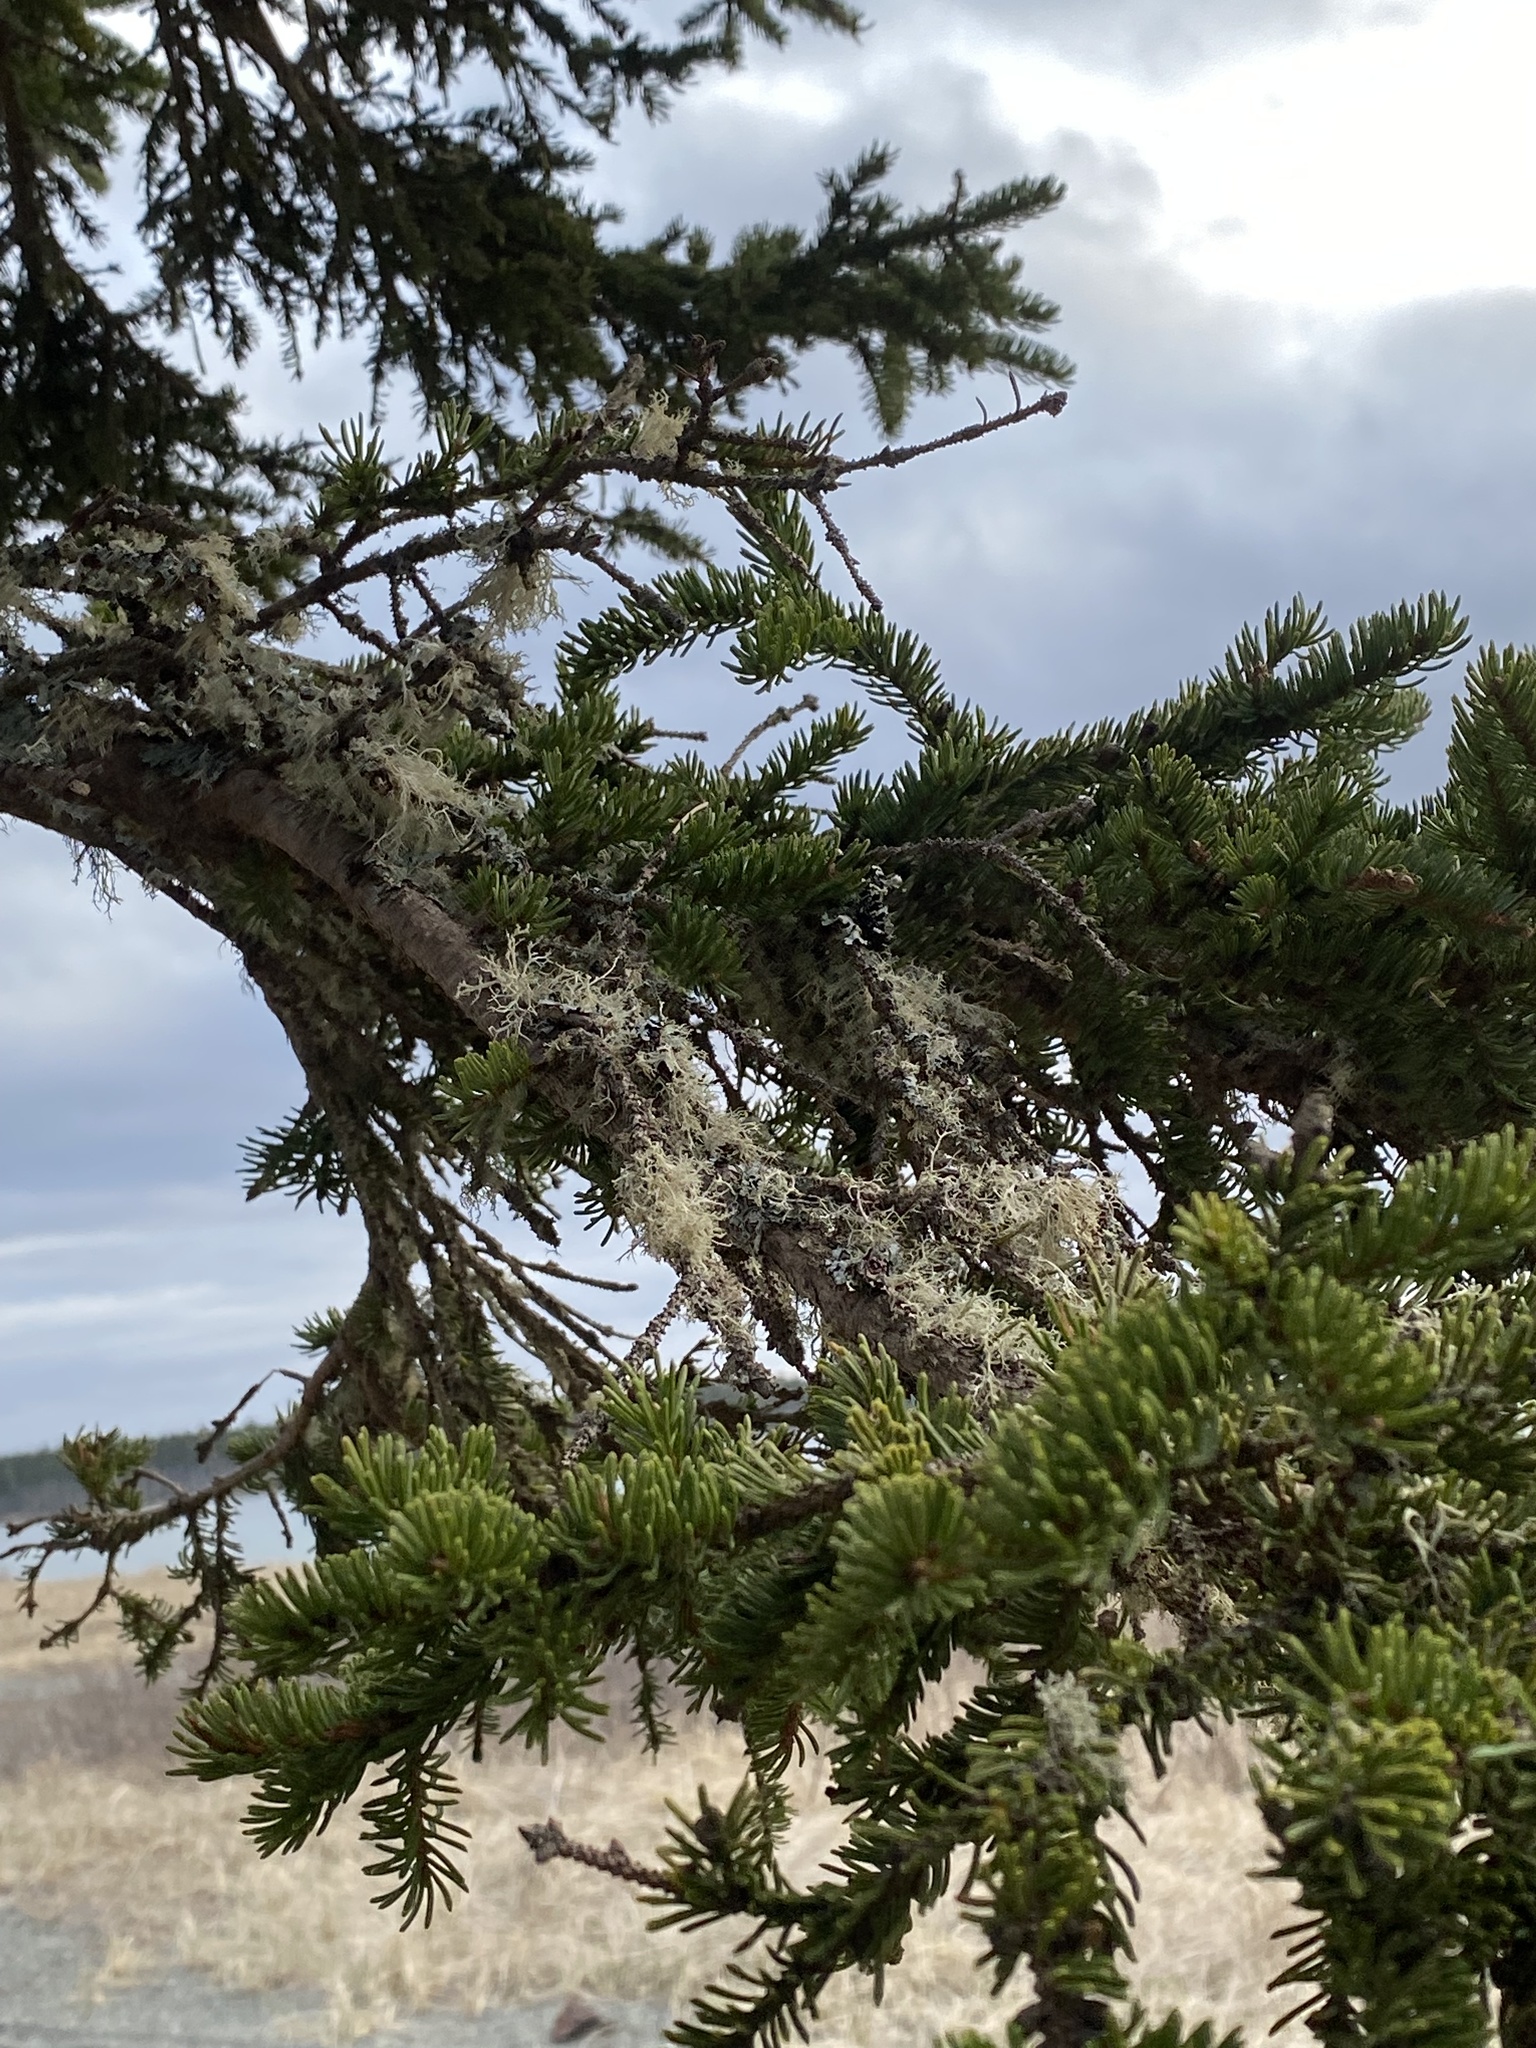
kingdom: Fungi
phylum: Ascomycota
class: Lecanoromycetes
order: Lecanorales
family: Ramalinaceae
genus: Ramalina
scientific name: Ramalina roesleri
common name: Frayed ribbon lichen
